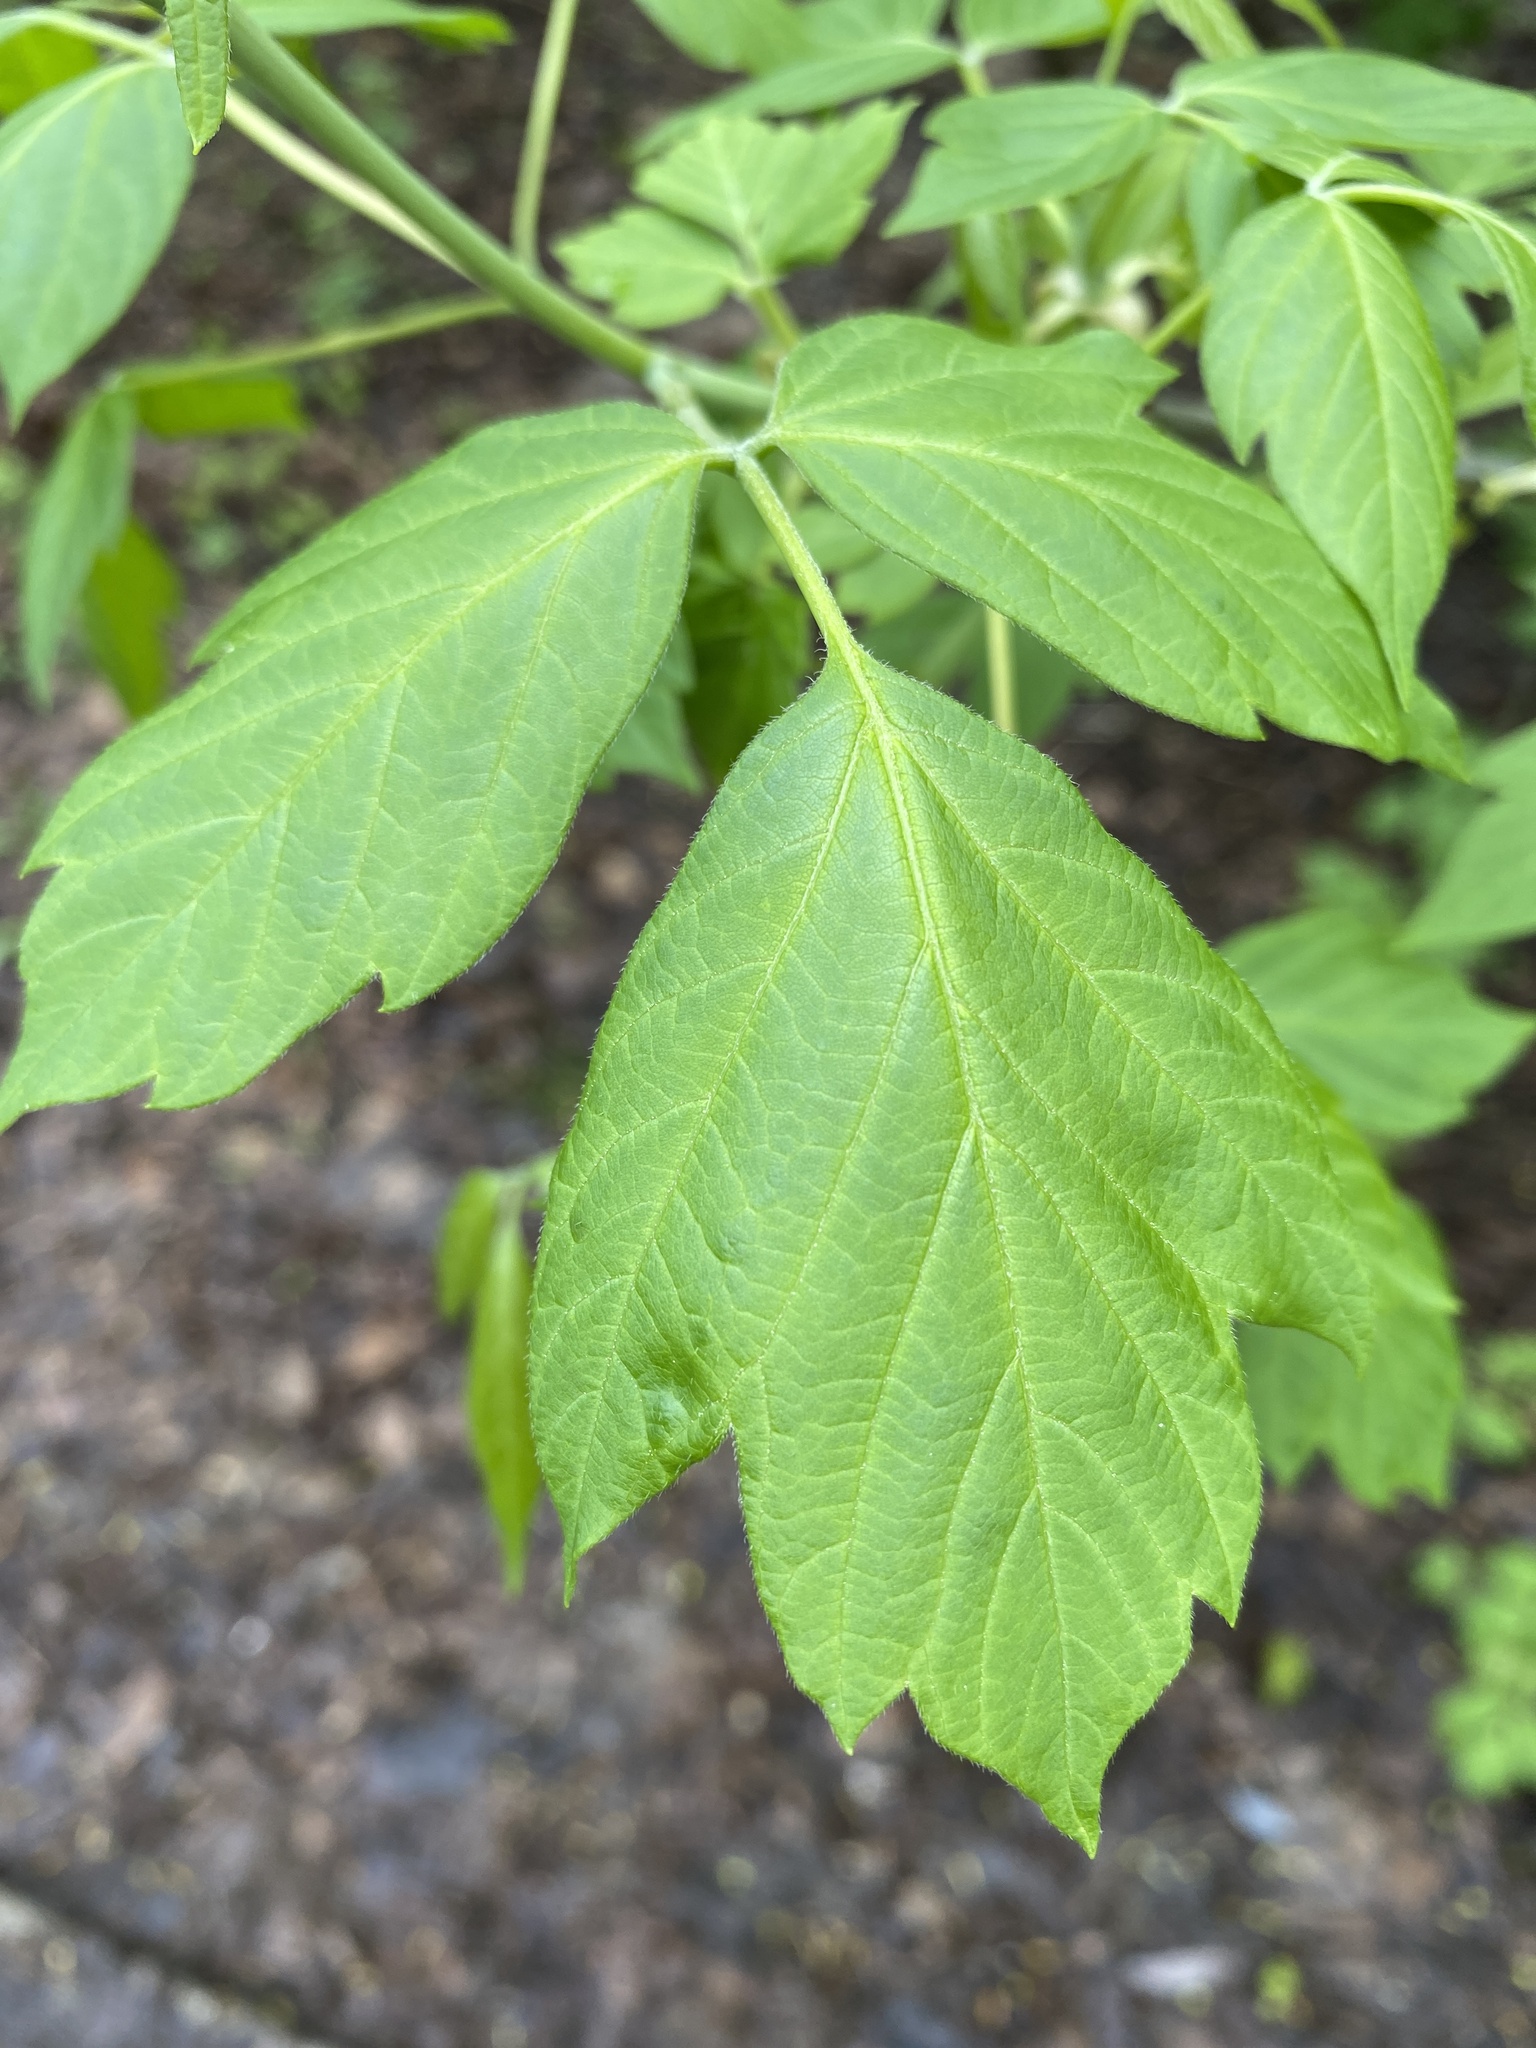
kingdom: Plantae
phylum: Tracheophyta
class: Magnoliopsida
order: Sapindales
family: Sapindaceae
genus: Acer
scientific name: Acer negundo
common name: Ashleaf maple
